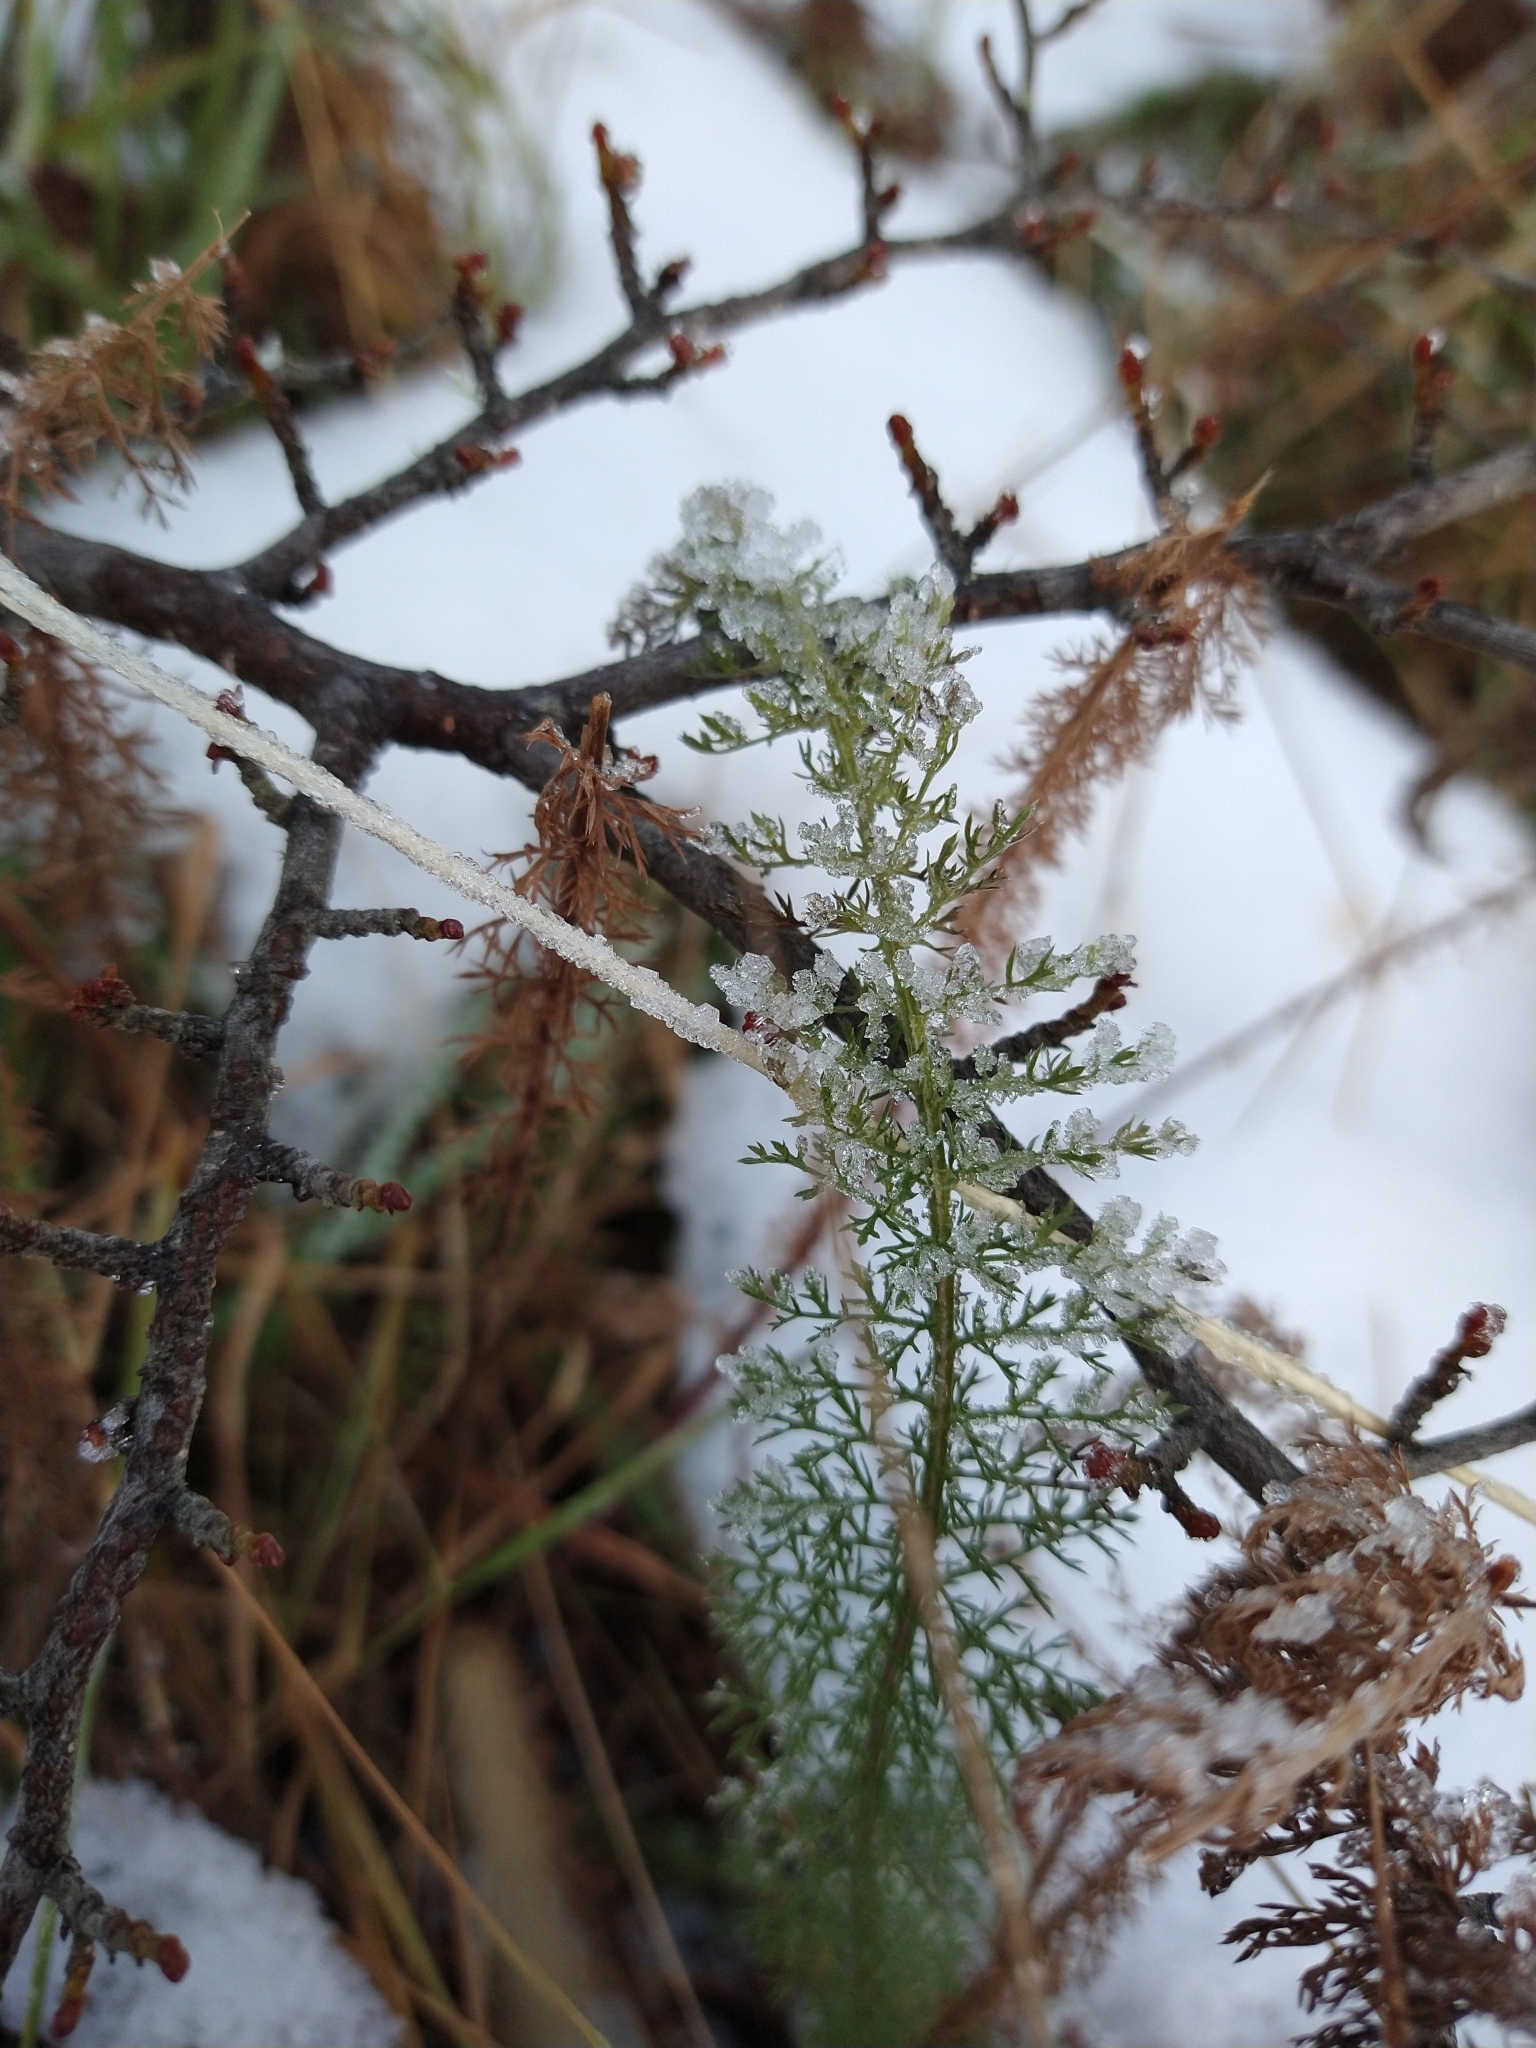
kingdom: Plantae
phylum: Tracheophyta
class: Magnoliopsida
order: Asterales
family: Asteraceae
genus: Achillea
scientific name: Achillea millefolium
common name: Yarrow
